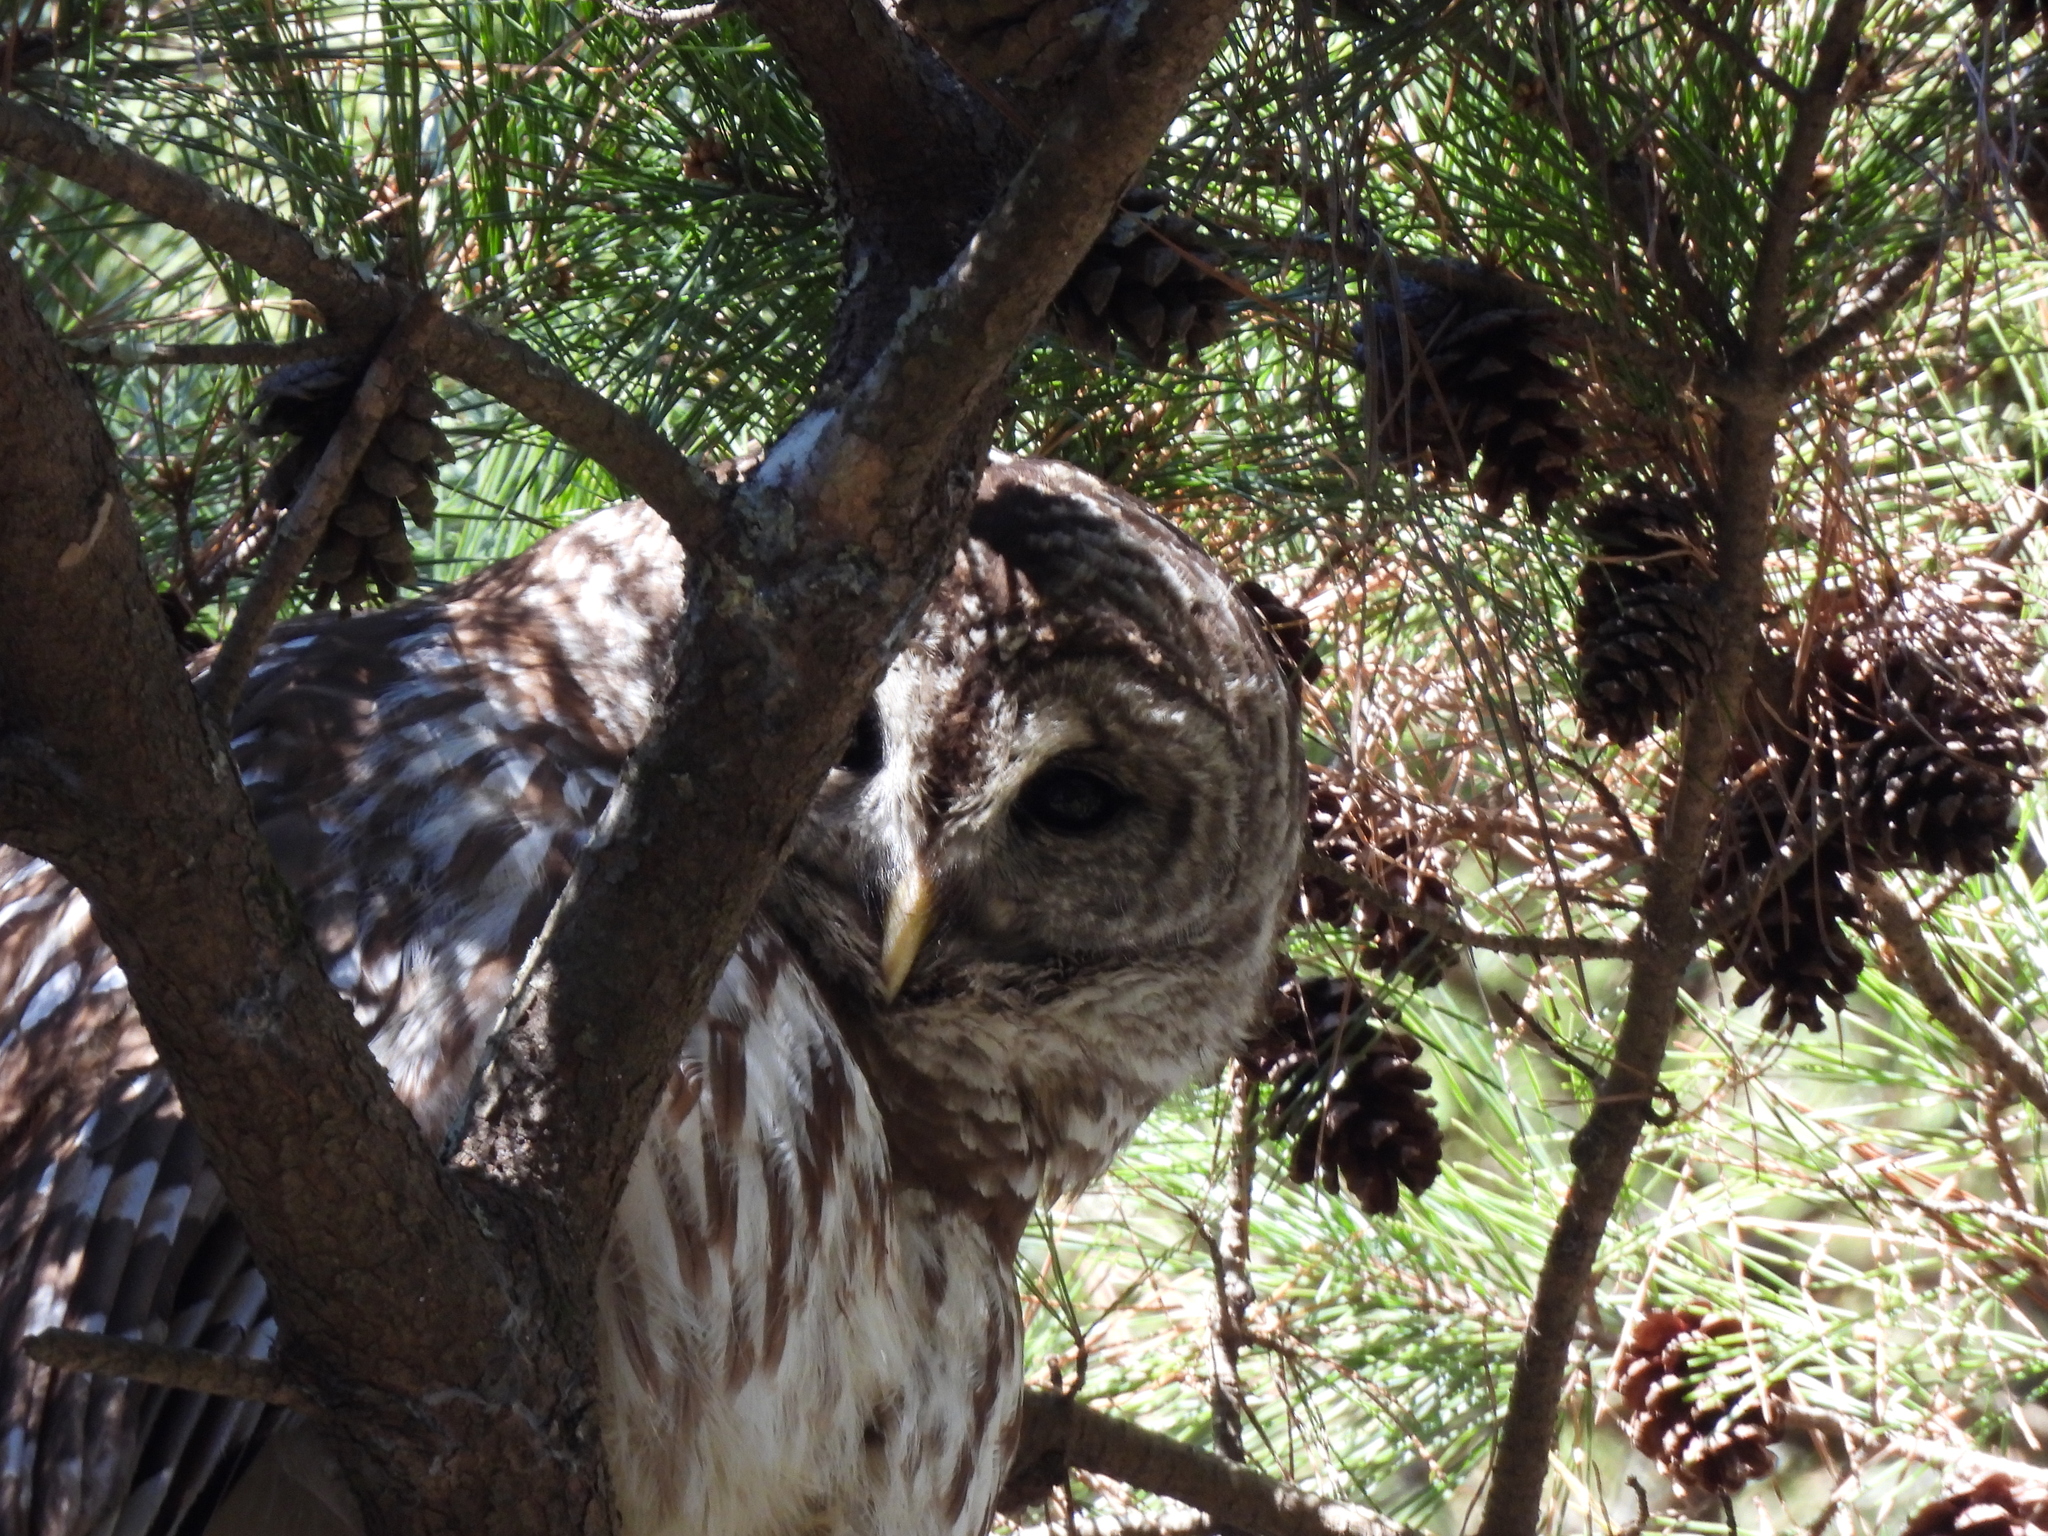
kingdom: Animalia
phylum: Chordata
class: Aves
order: Strigiformes
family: Strigidae
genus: Strix
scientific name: Strix varia
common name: Barred owl
